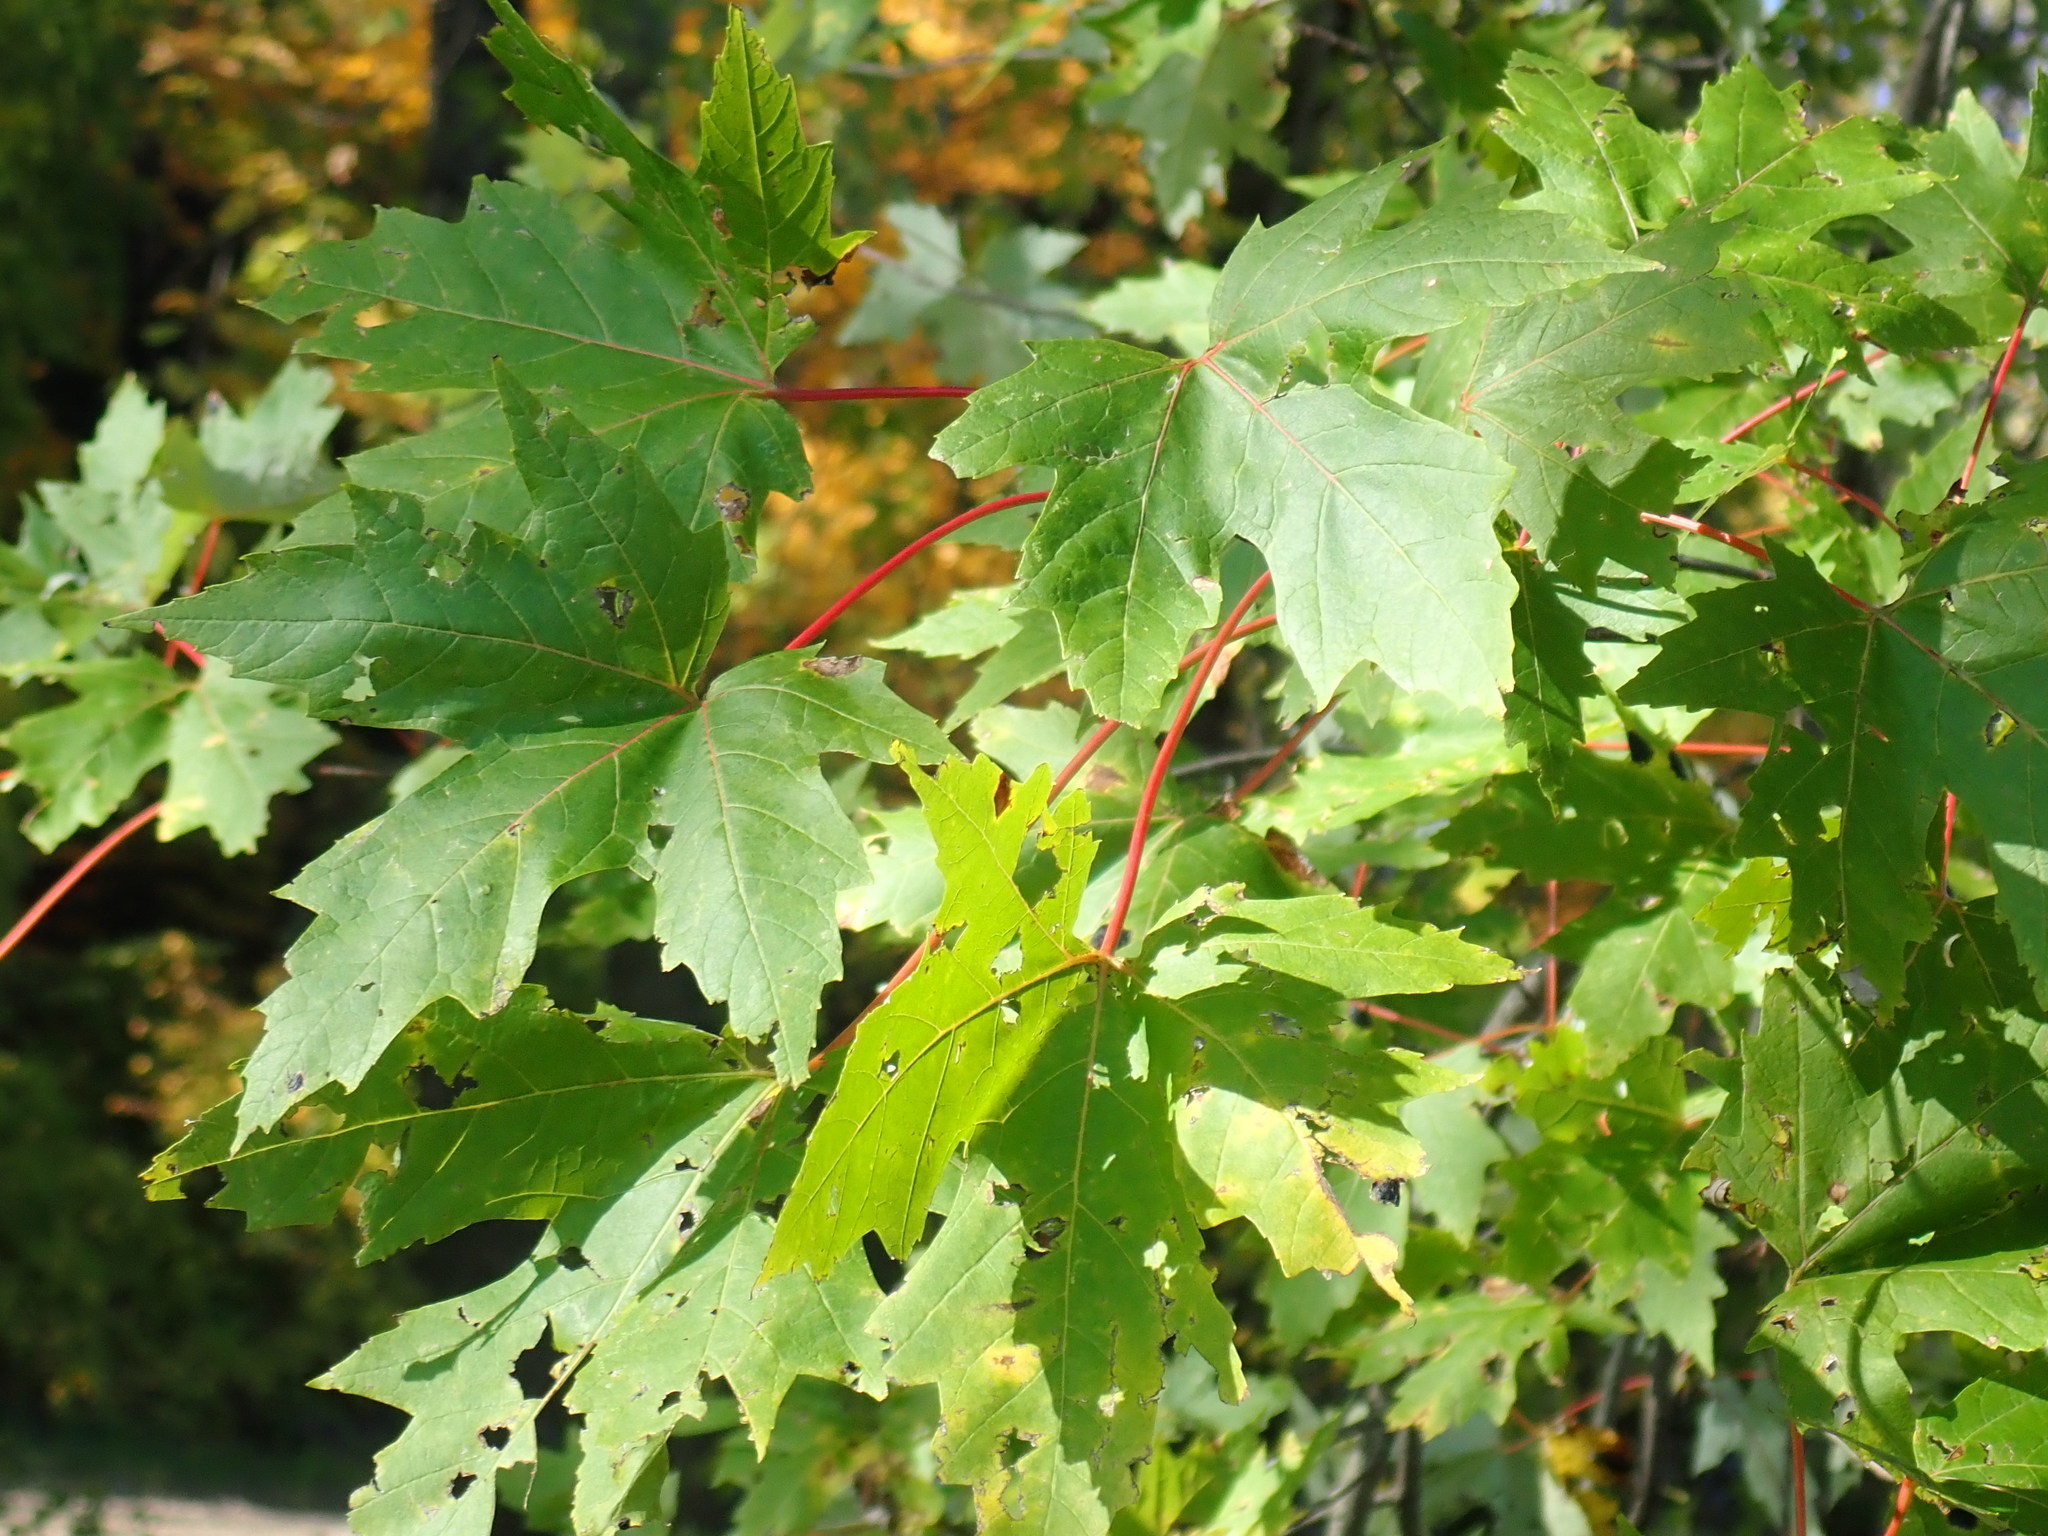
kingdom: Plantae
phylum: Tracheophyta
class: Magnoliopsida
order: Sapindales
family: Sapindaceae
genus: Acer
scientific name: Acer saccharinum
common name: Silver maple
